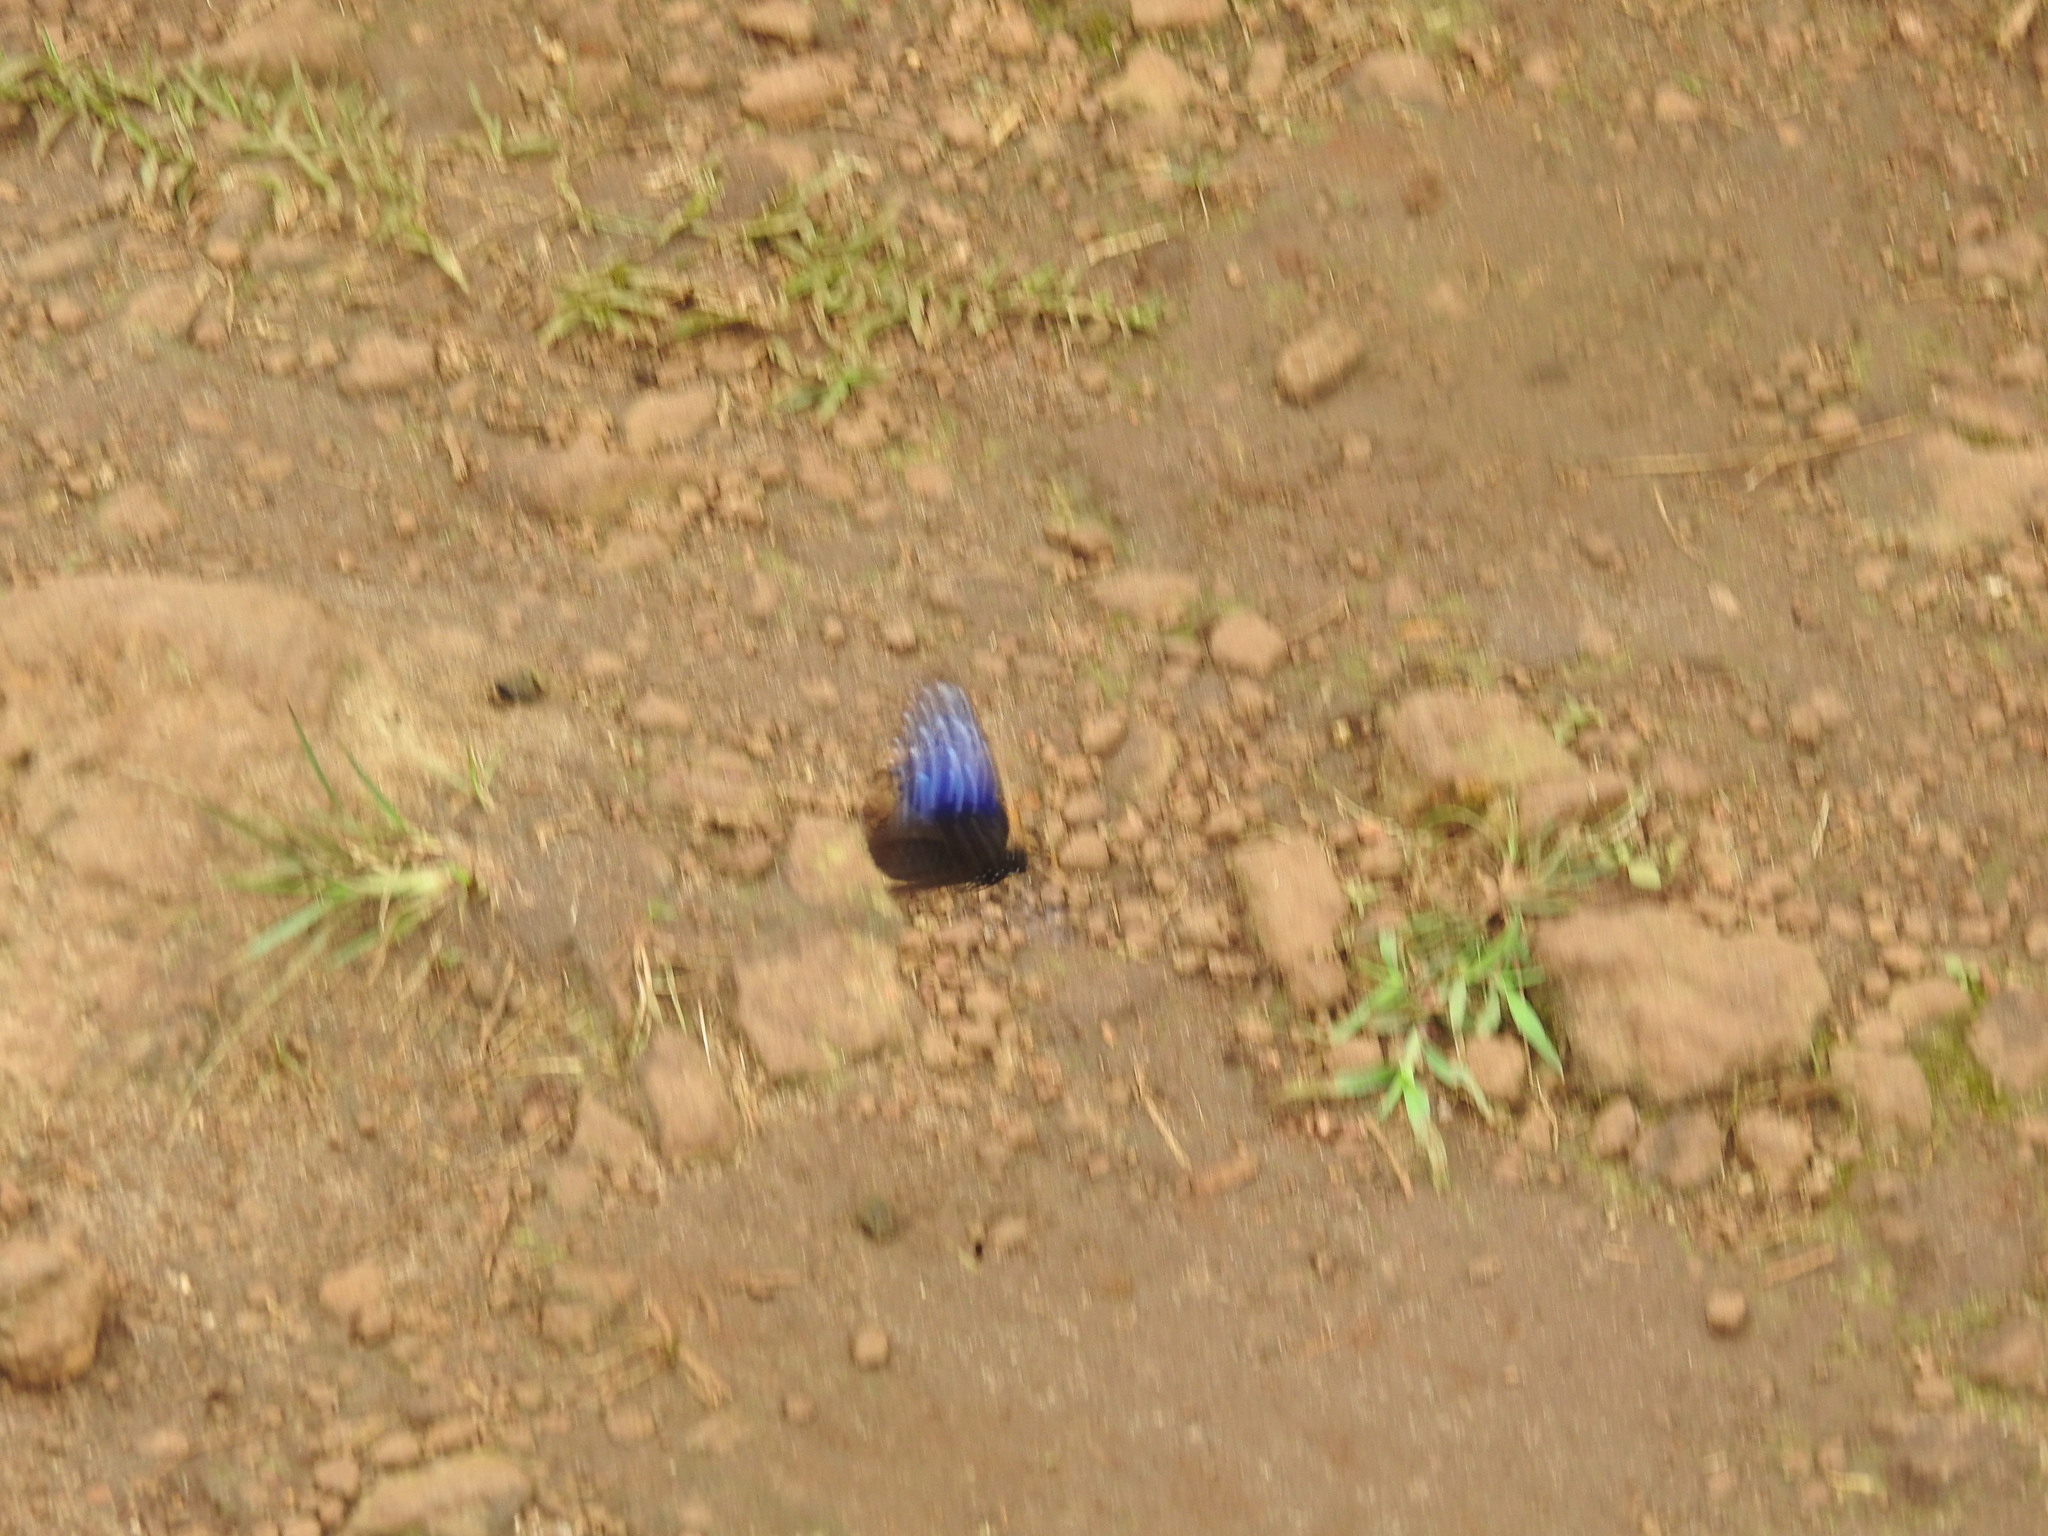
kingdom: Animalia
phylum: Arthropoda
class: Insecta
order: Lepidoptera
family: Nymphalidae
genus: Euploea
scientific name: Euploea mulciber
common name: Striped blue crow butterfly
